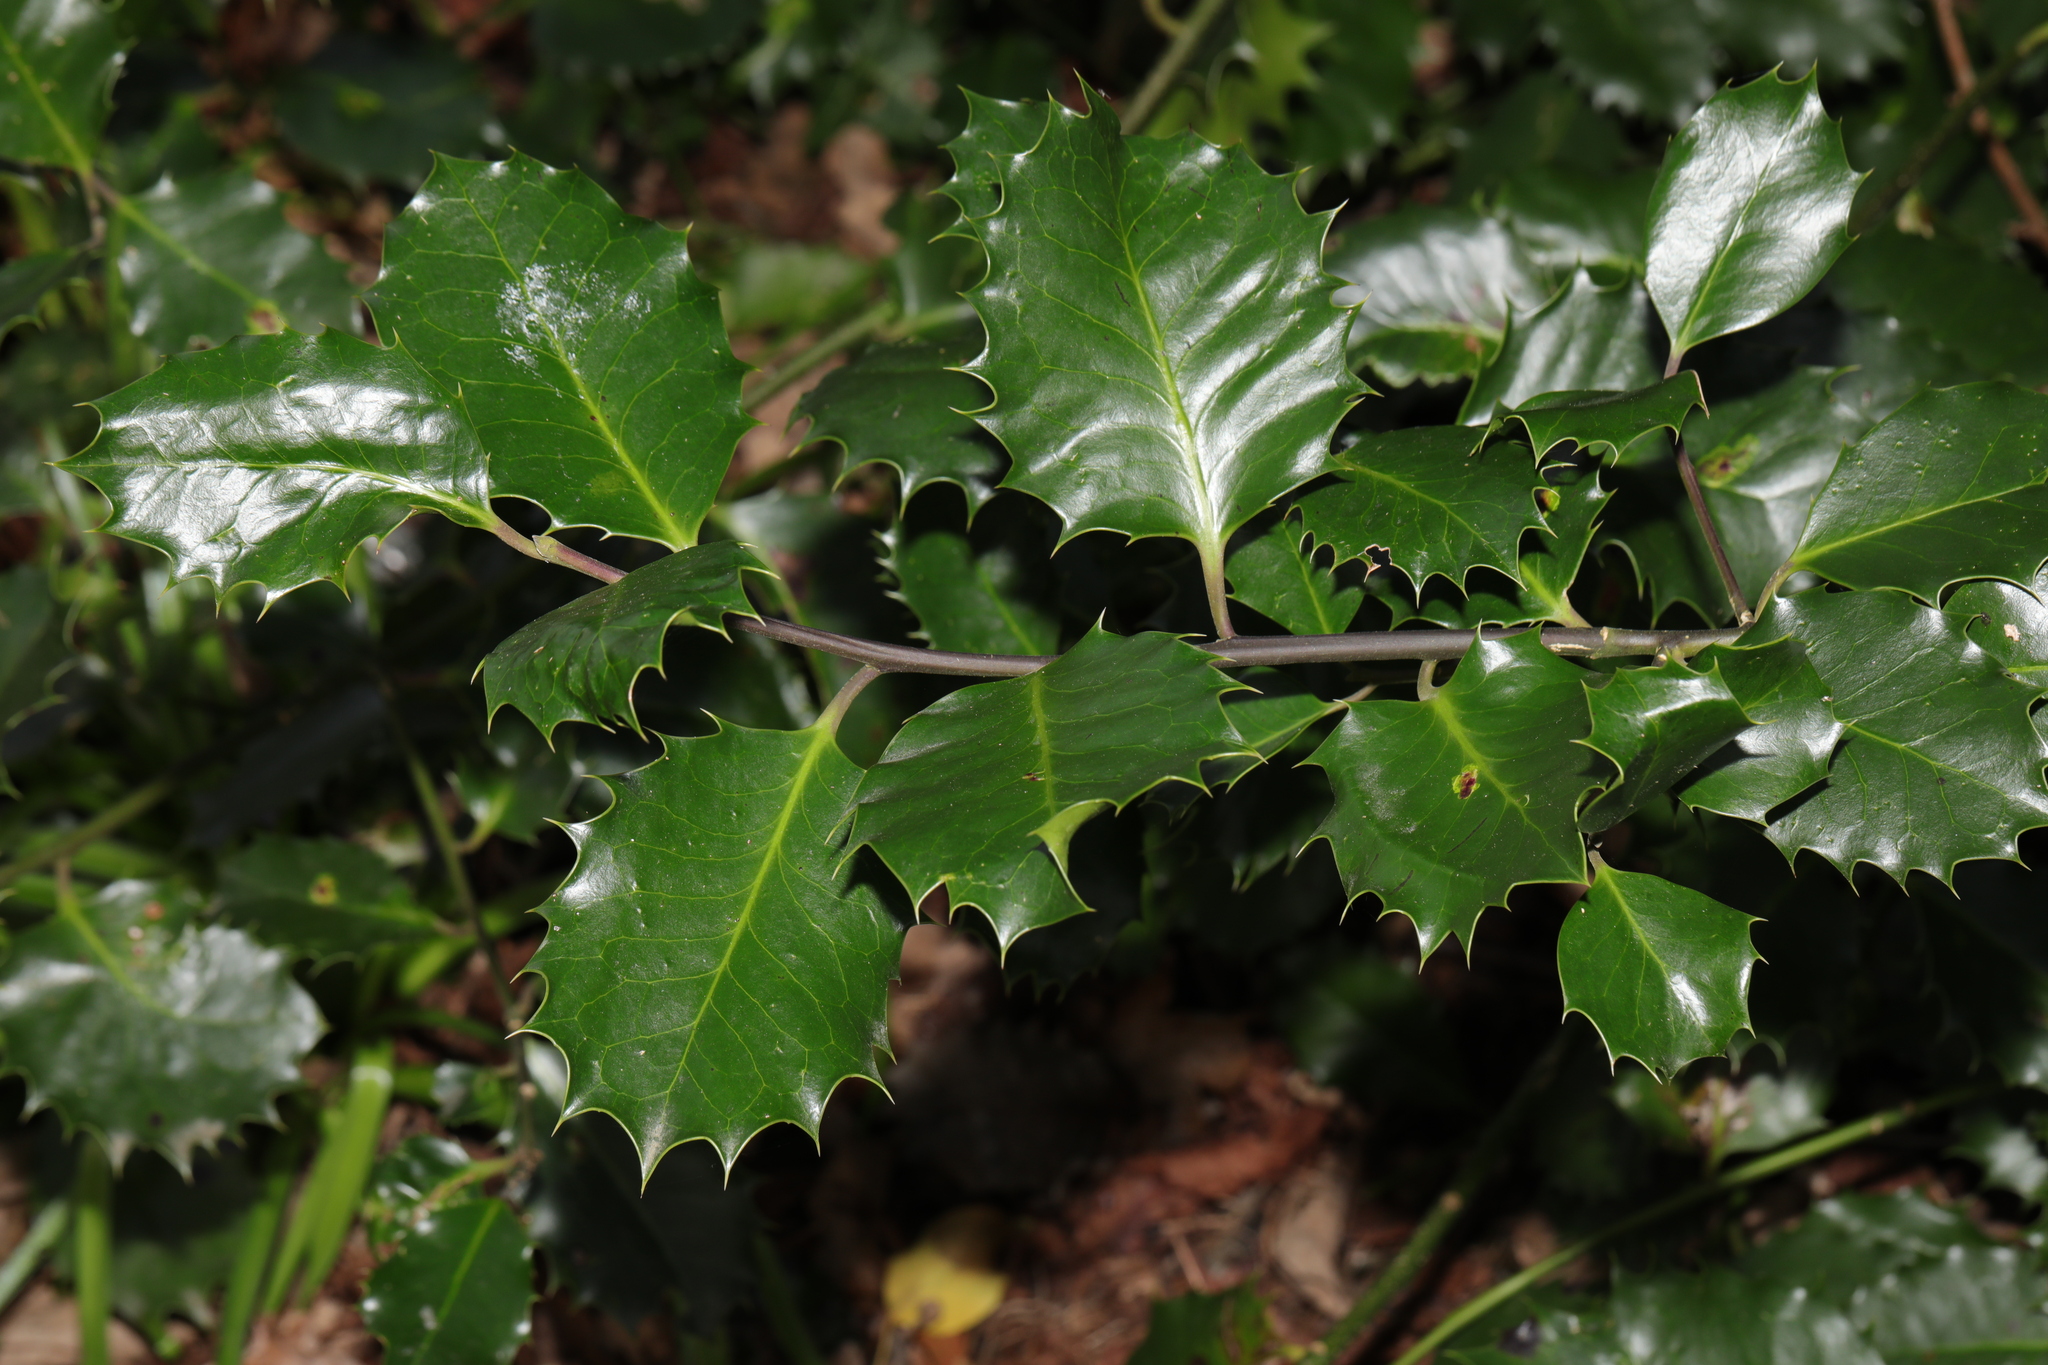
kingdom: Plantae
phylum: Tracheophyta
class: Magnoliopsida
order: Aquifoliales
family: Aquifoliaceae
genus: Ilex
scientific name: Ilex aquifolium
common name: English holly
